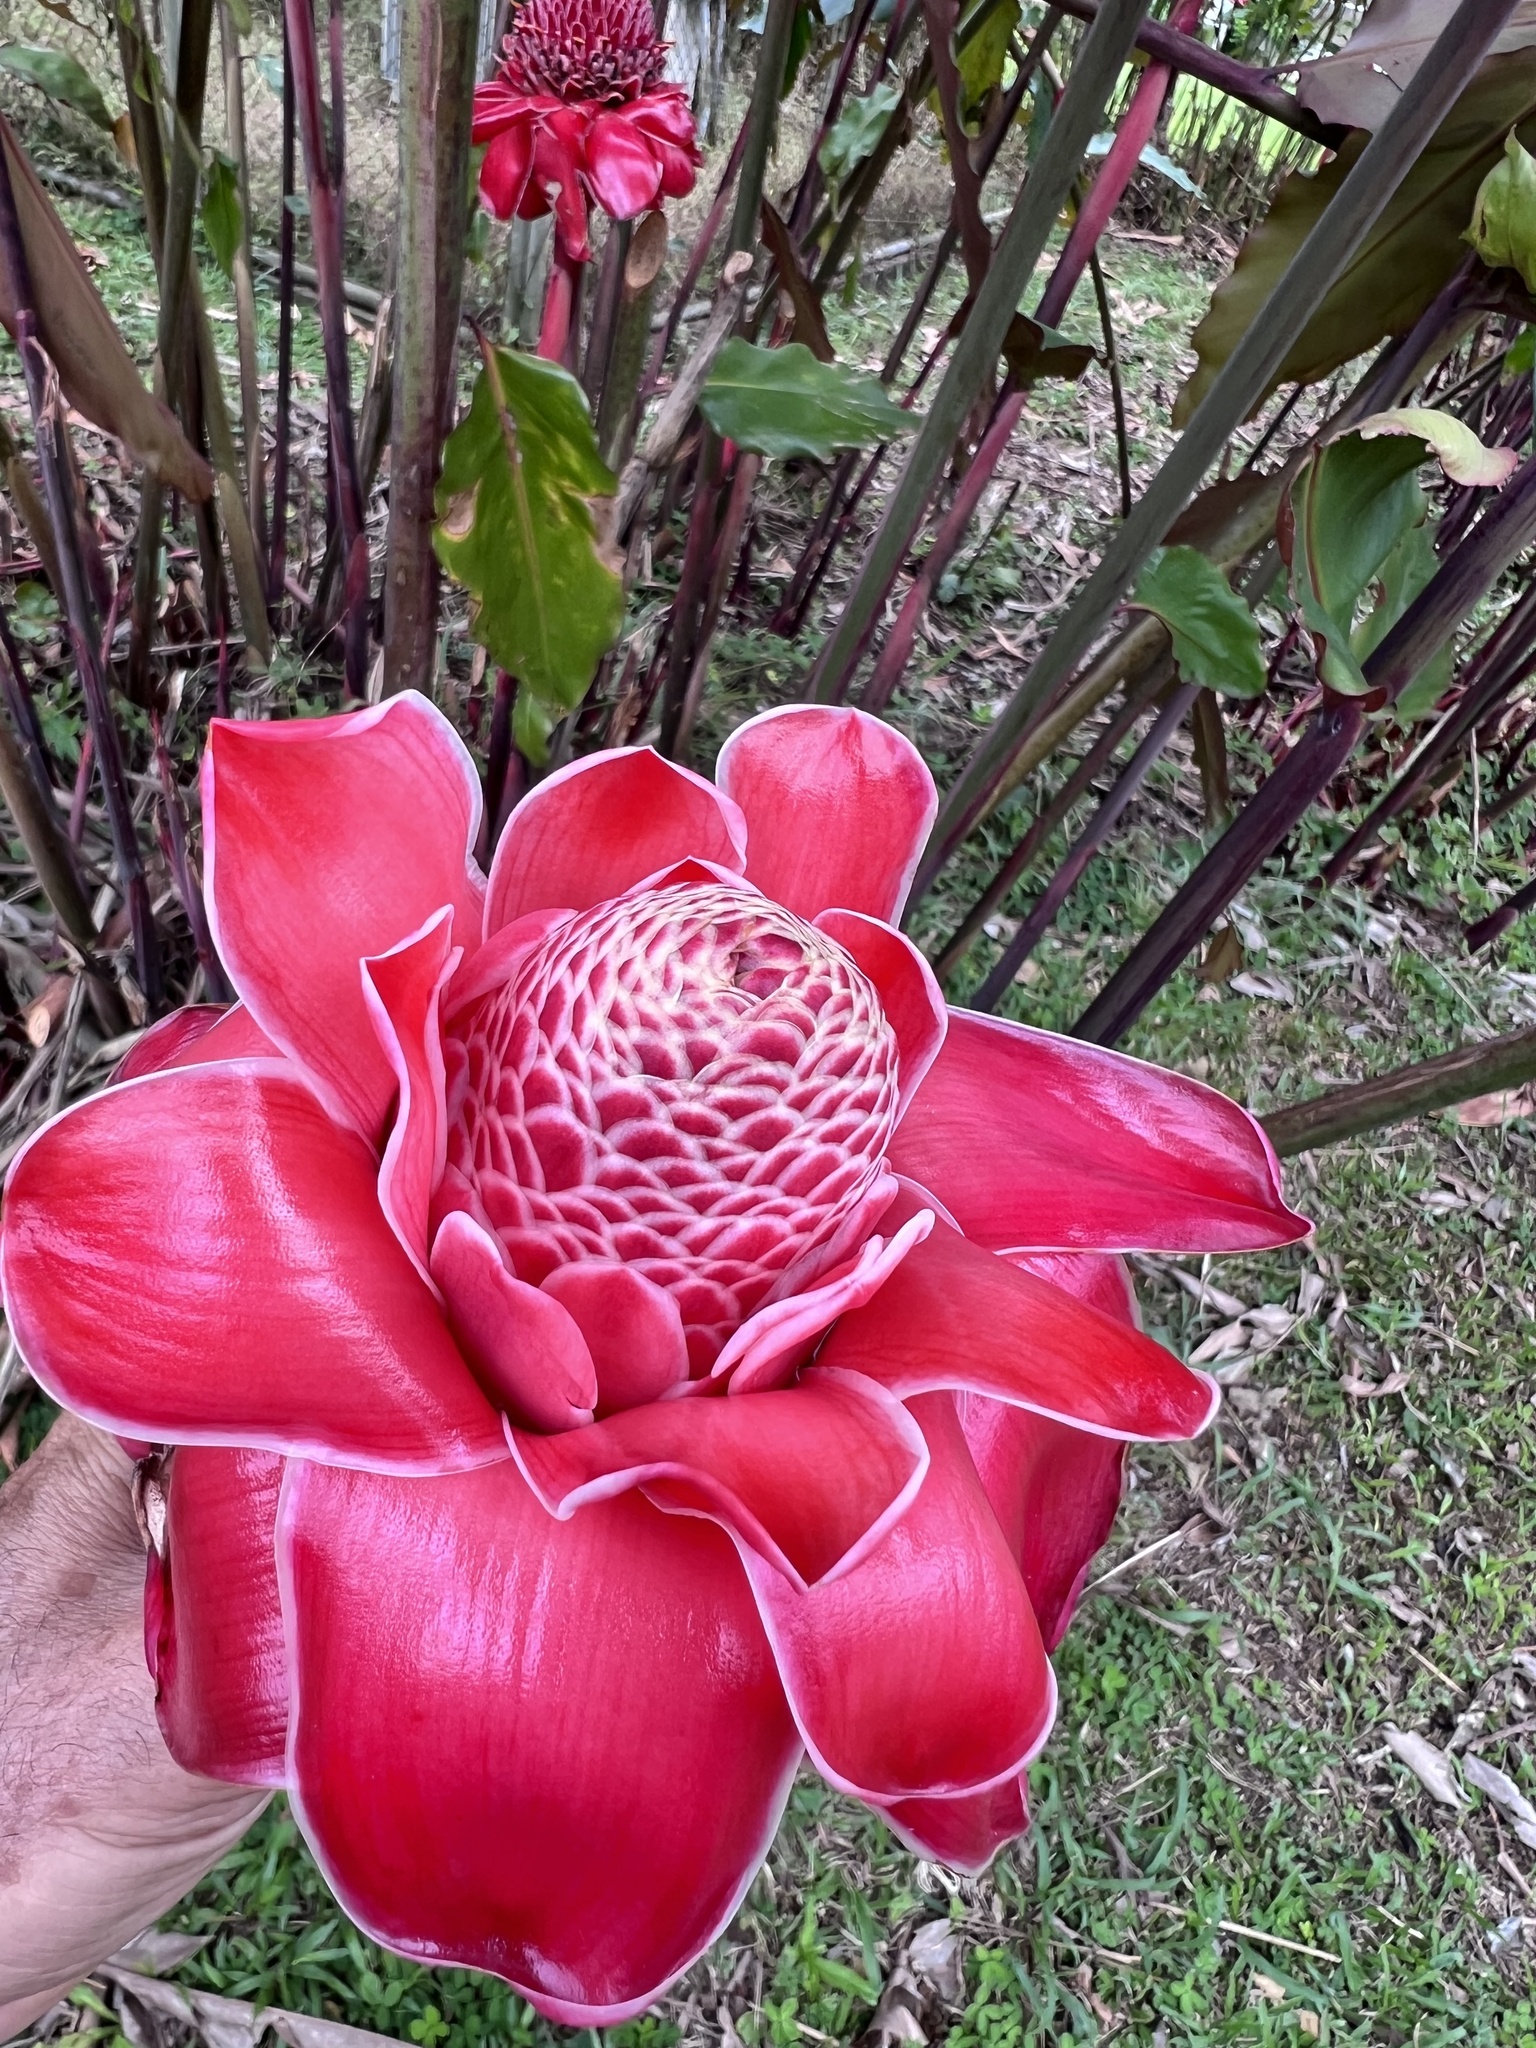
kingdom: Plantae
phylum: Tracheophyta
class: Liliopsida
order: Zingiberales
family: Zingiberaceae
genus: Etlingera
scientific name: Etlingera elatior
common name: Philippine waxflower
